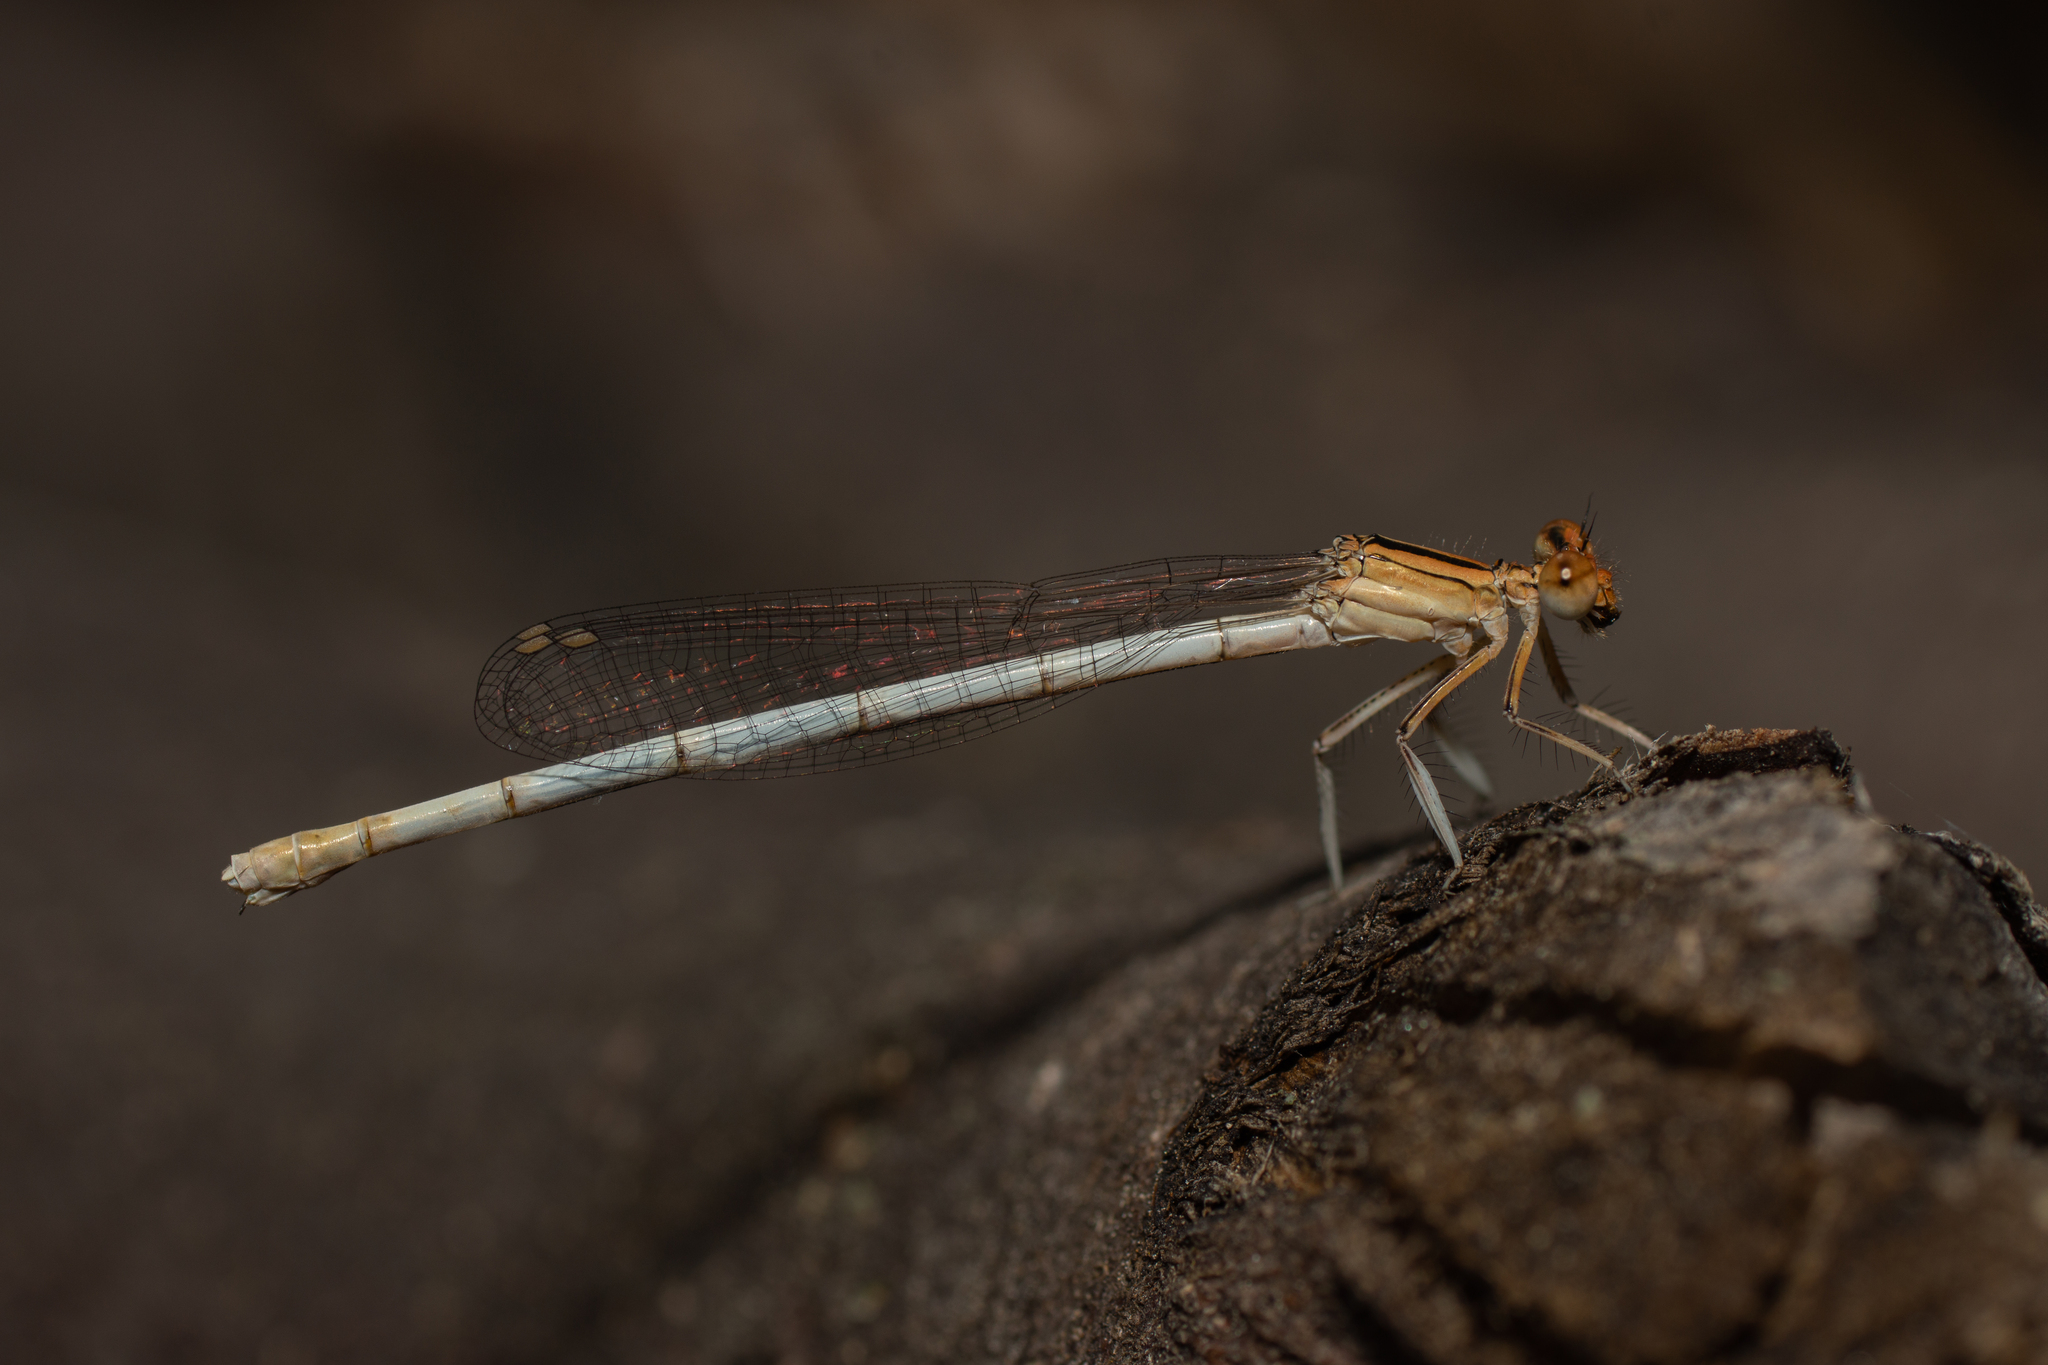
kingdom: Animalia
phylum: Arthropoda
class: Insecta
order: Odonata
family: Platycnemididae
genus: Platycnemis
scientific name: Platycnemis latipes
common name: White featherleg
